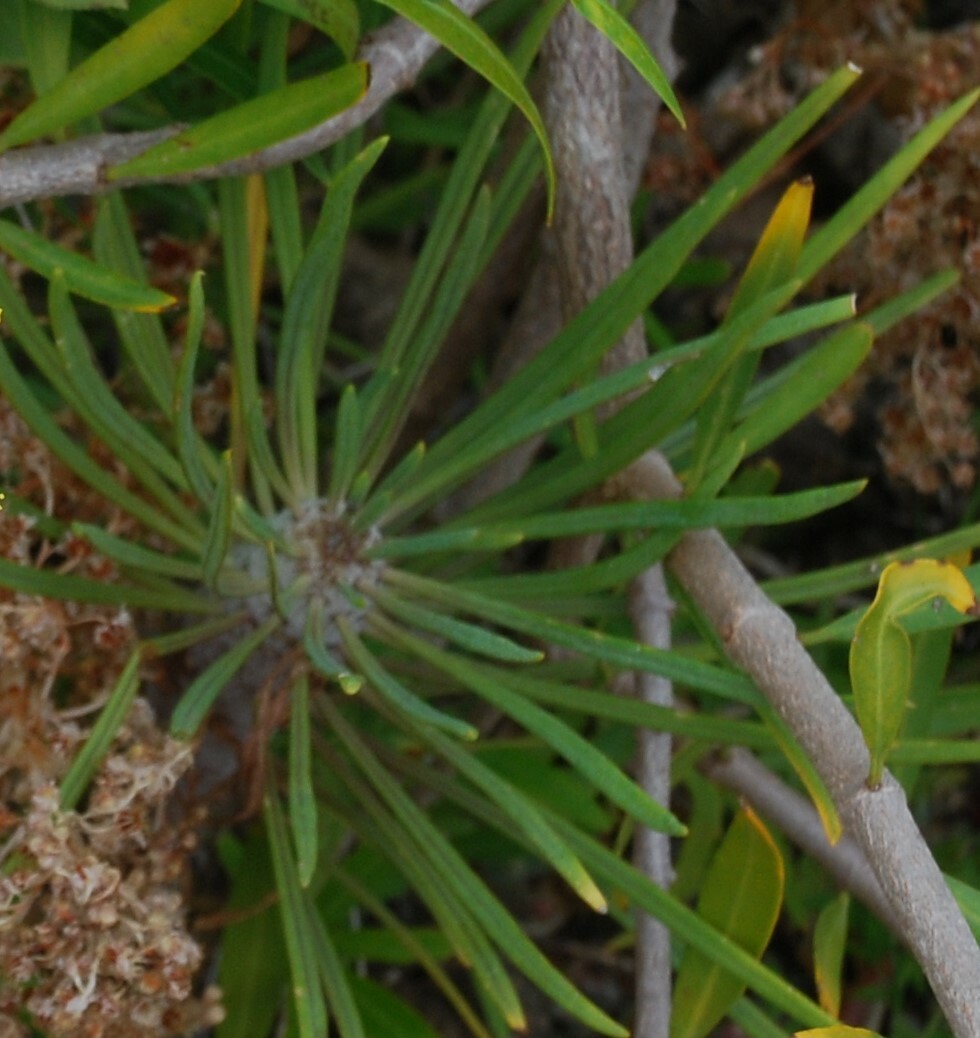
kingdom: Plantae
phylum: Tracheophyta
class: Magnoliopsida
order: Asterales
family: Asteraceae
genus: Kleinia
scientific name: Kleinia neriifolia
